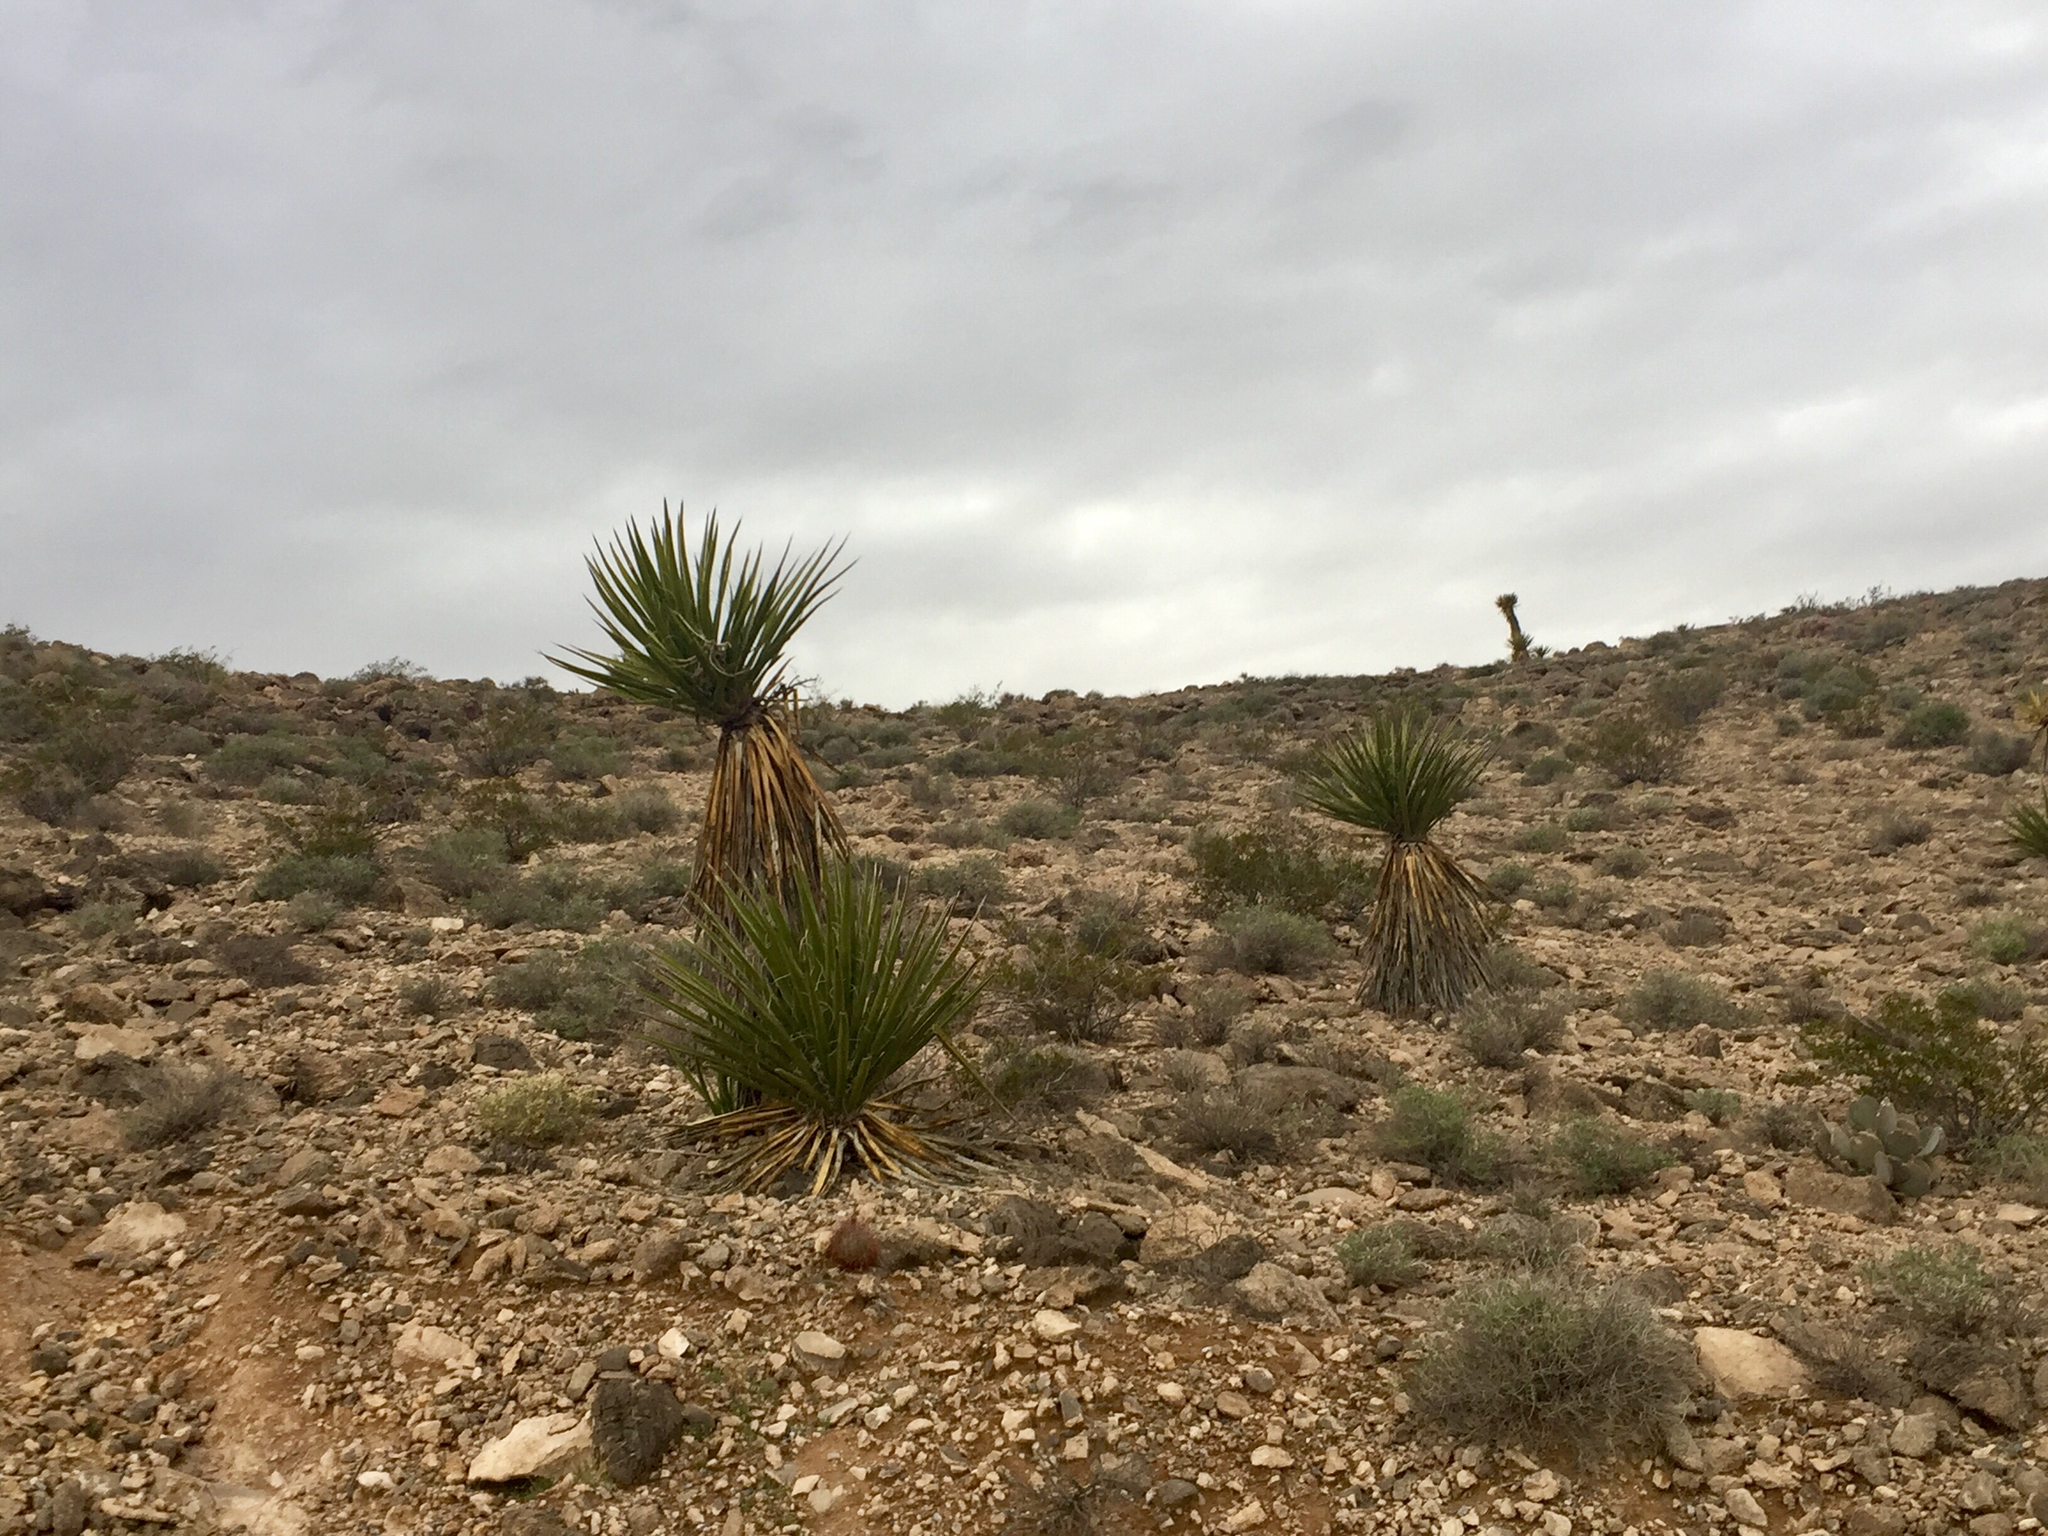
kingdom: Plantae
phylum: Tracheophyta
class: Liliopsida
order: Asparagales
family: Asparagaceae
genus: Yucca
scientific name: Yucca schidigera
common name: Mojave yucca
